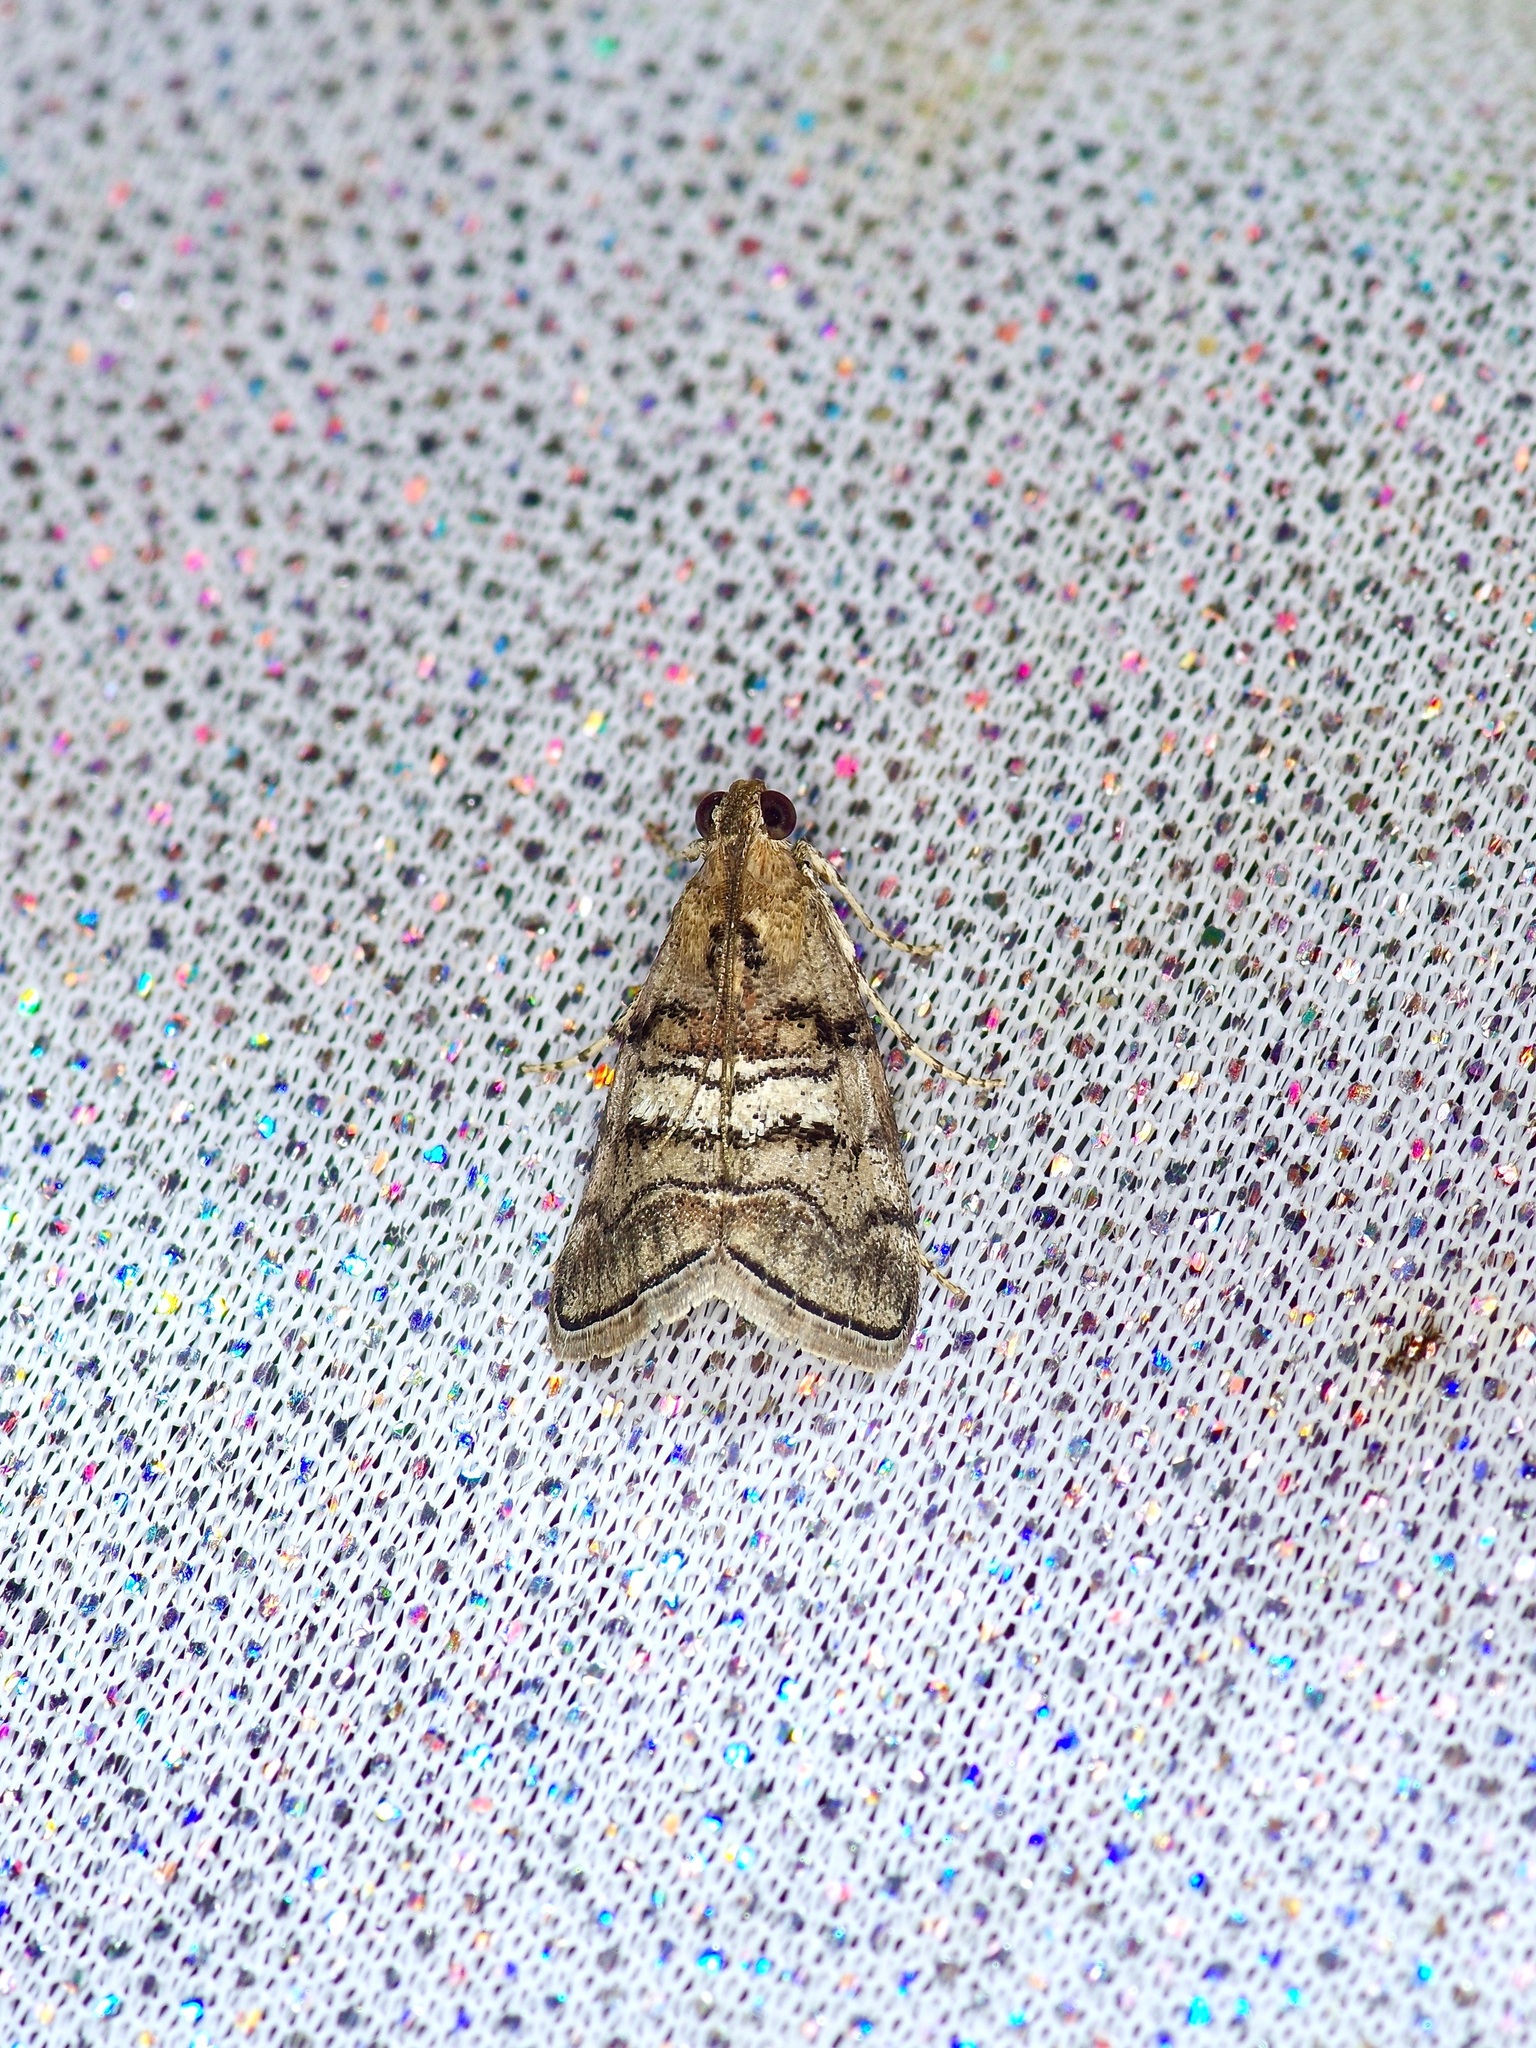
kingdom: Animalia
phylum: Arthropoda
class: Insecta
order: Lepidoptera
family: Pyralidae
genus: Pococera
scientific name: Pococera maritimalis
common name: Gray-banded pococera moth
